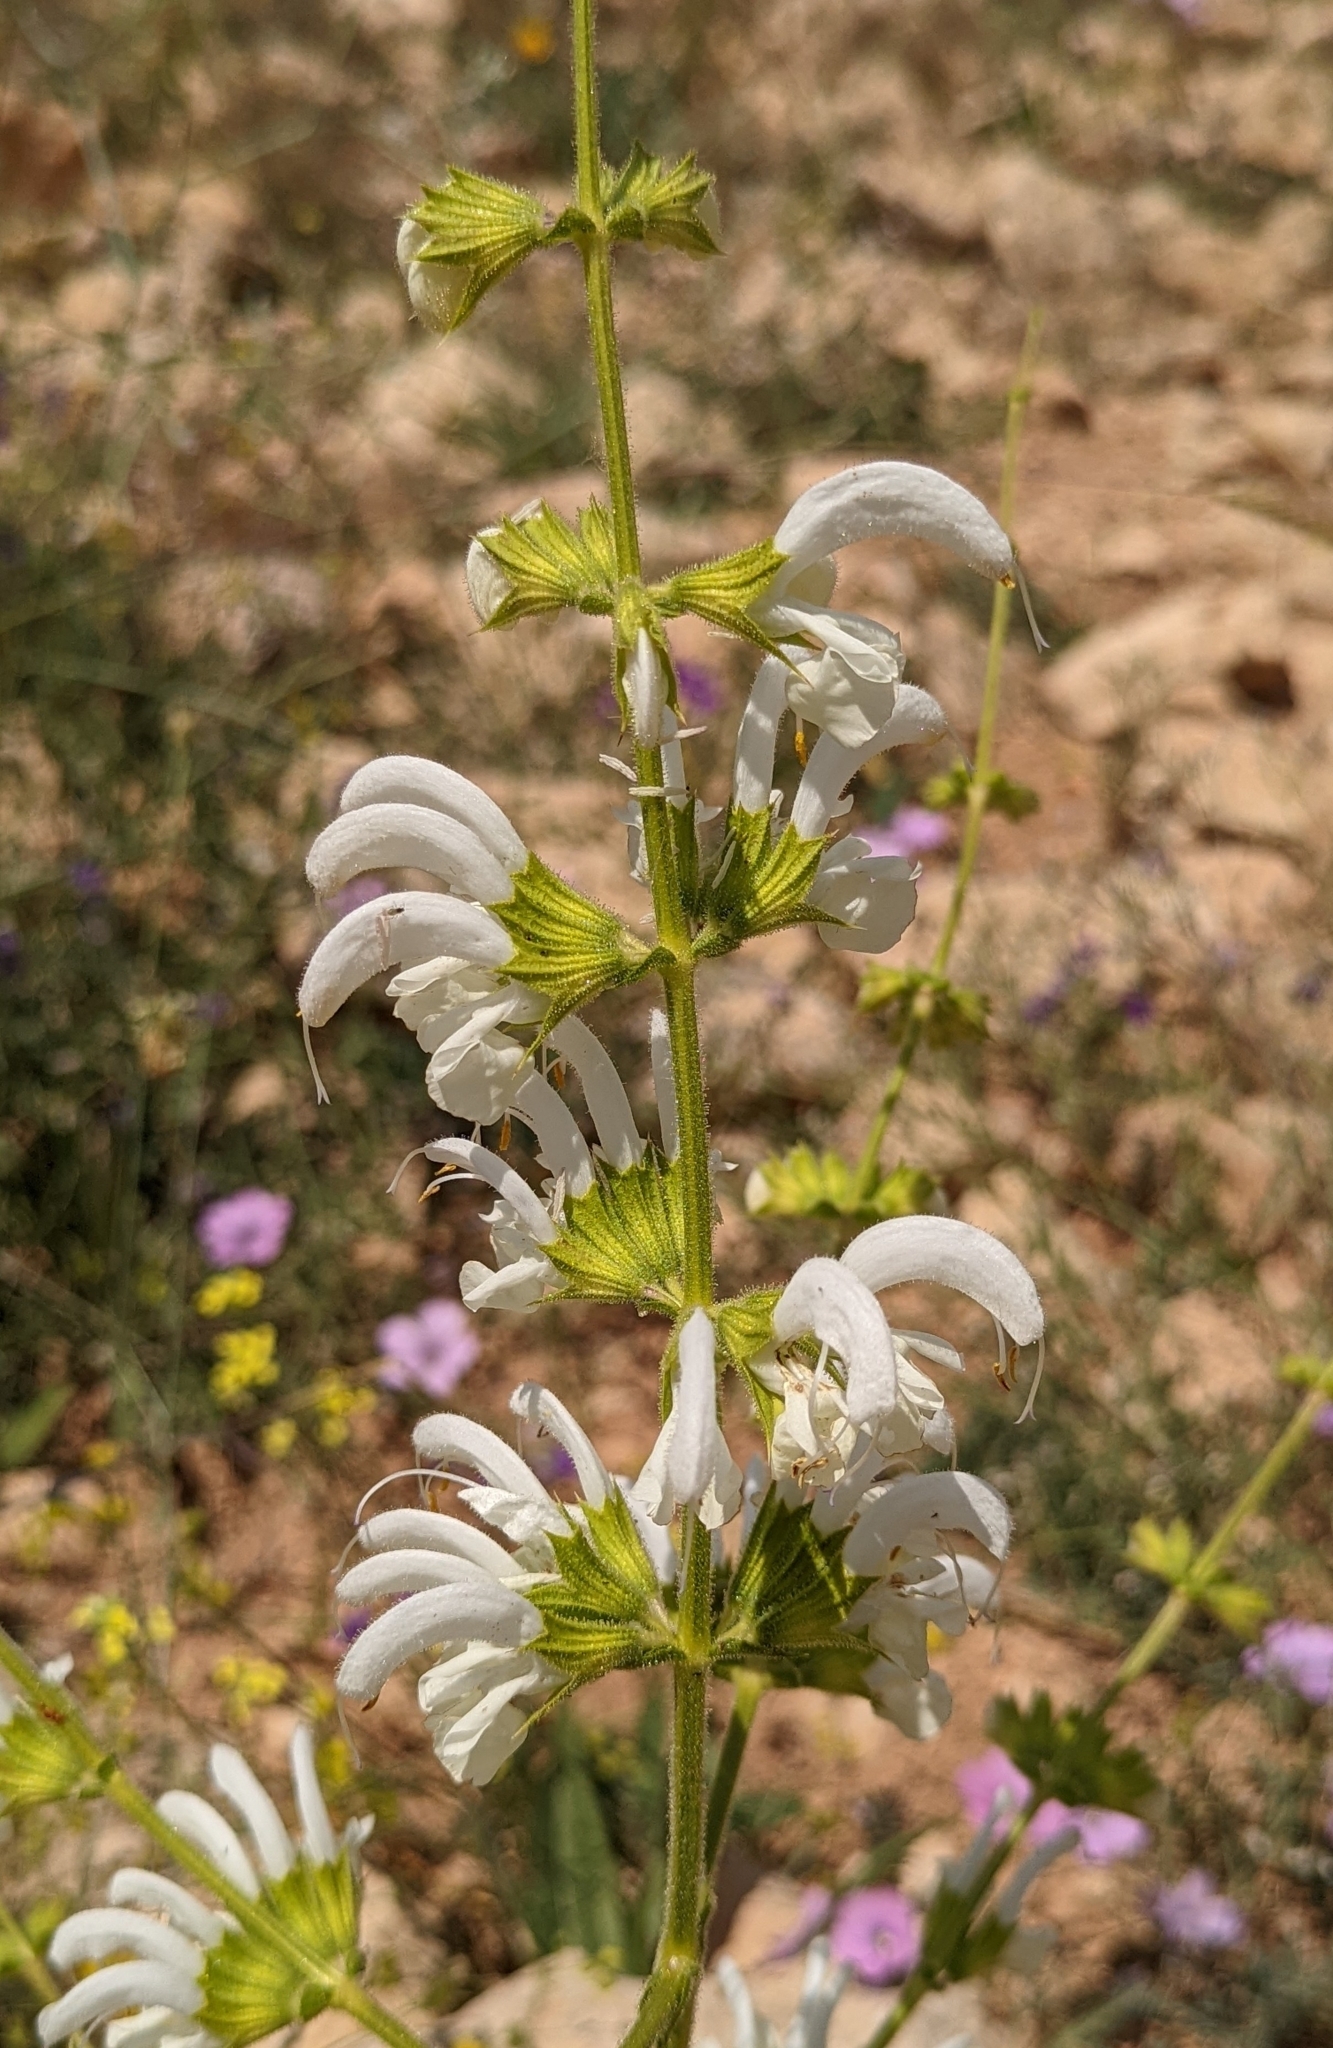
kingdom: Plantae
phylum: Tracheophyta
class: Magnoliopsida
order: Lamiales
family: Lamiaceae
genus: Salvia
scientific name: Salvia argentea
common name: Silver sage
